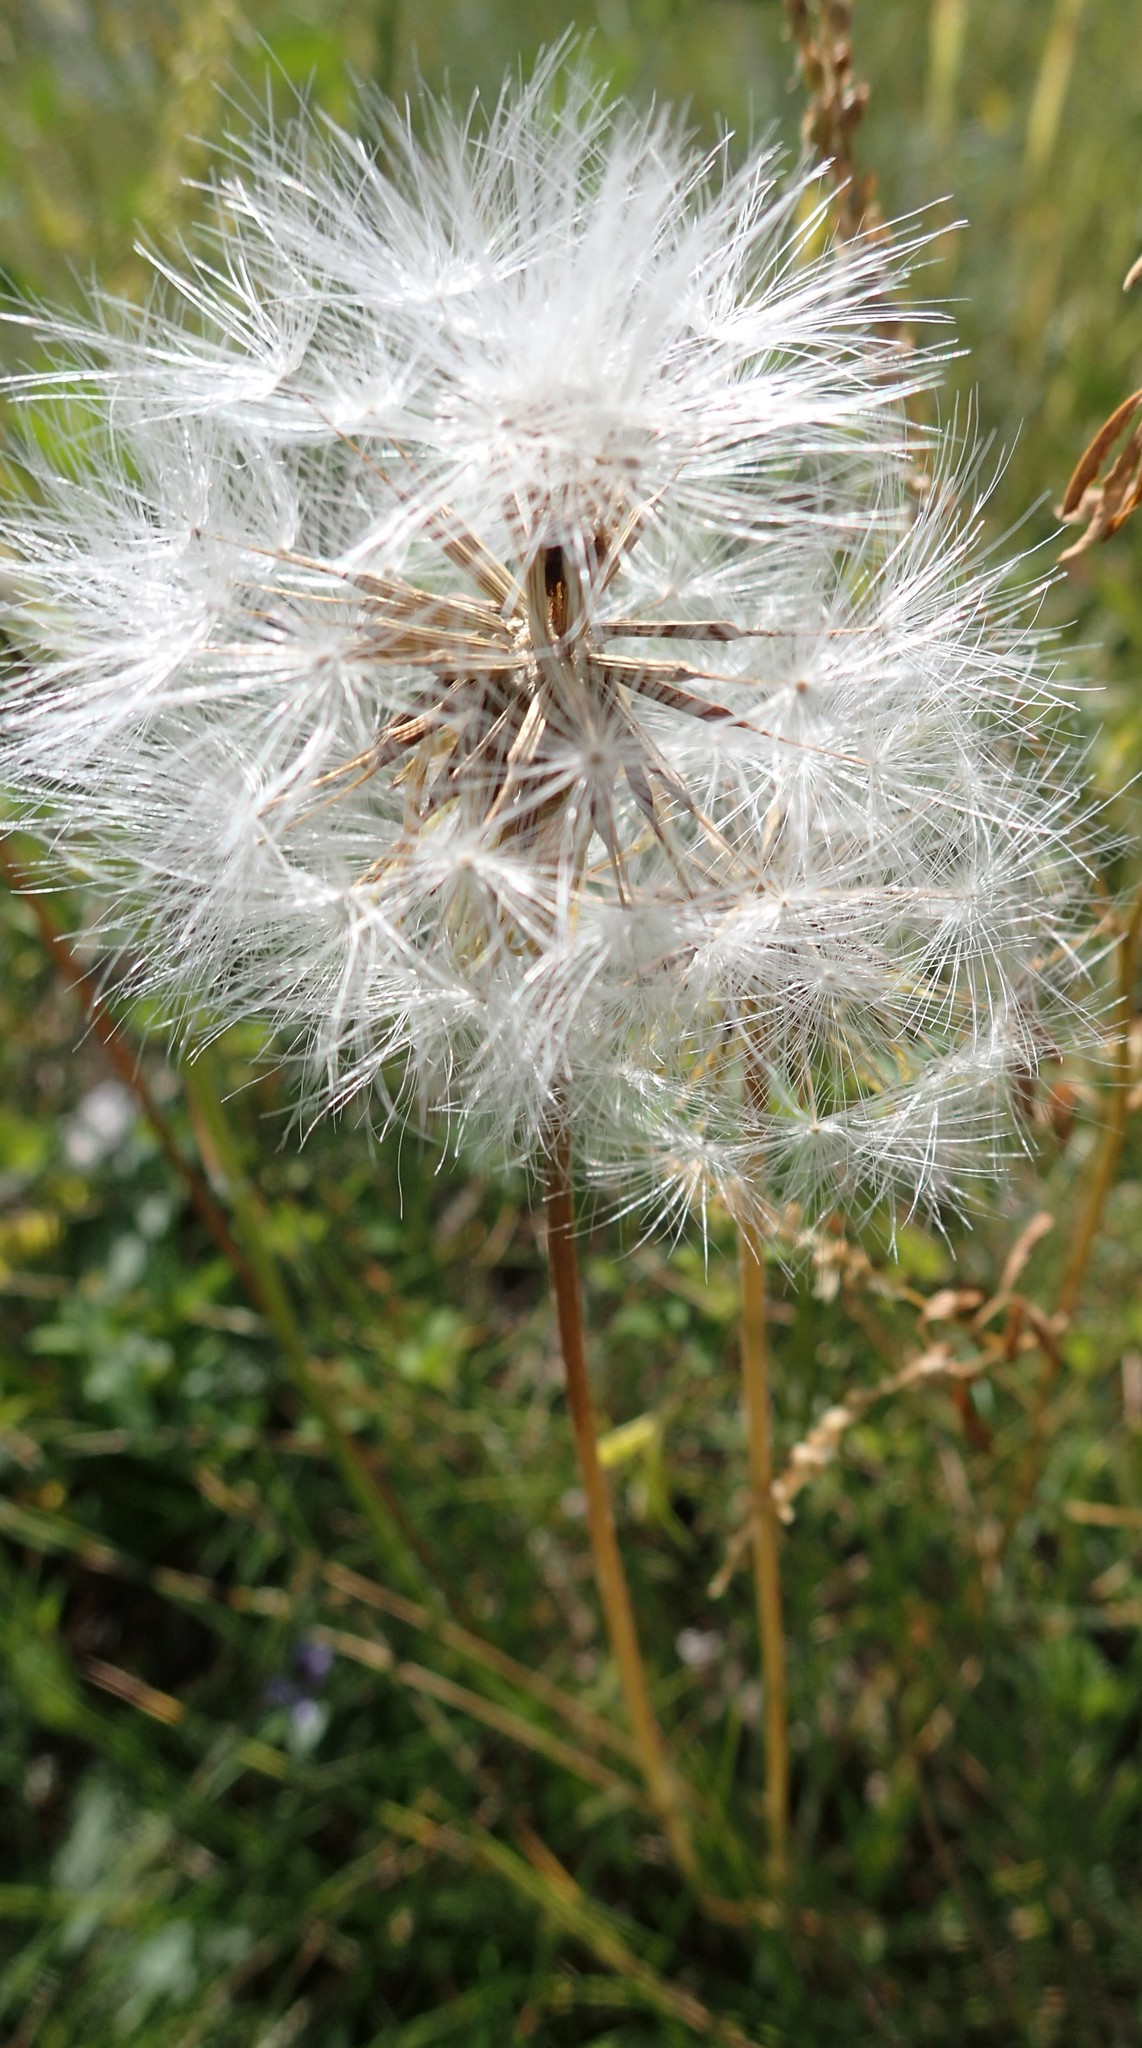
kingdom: Plantae
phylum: Tracheophyta
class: Magnoliopsida
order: Asterales
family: Asteraceae
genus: Taraxacum
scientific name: Taraxacum officinale
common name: Common dandelion
